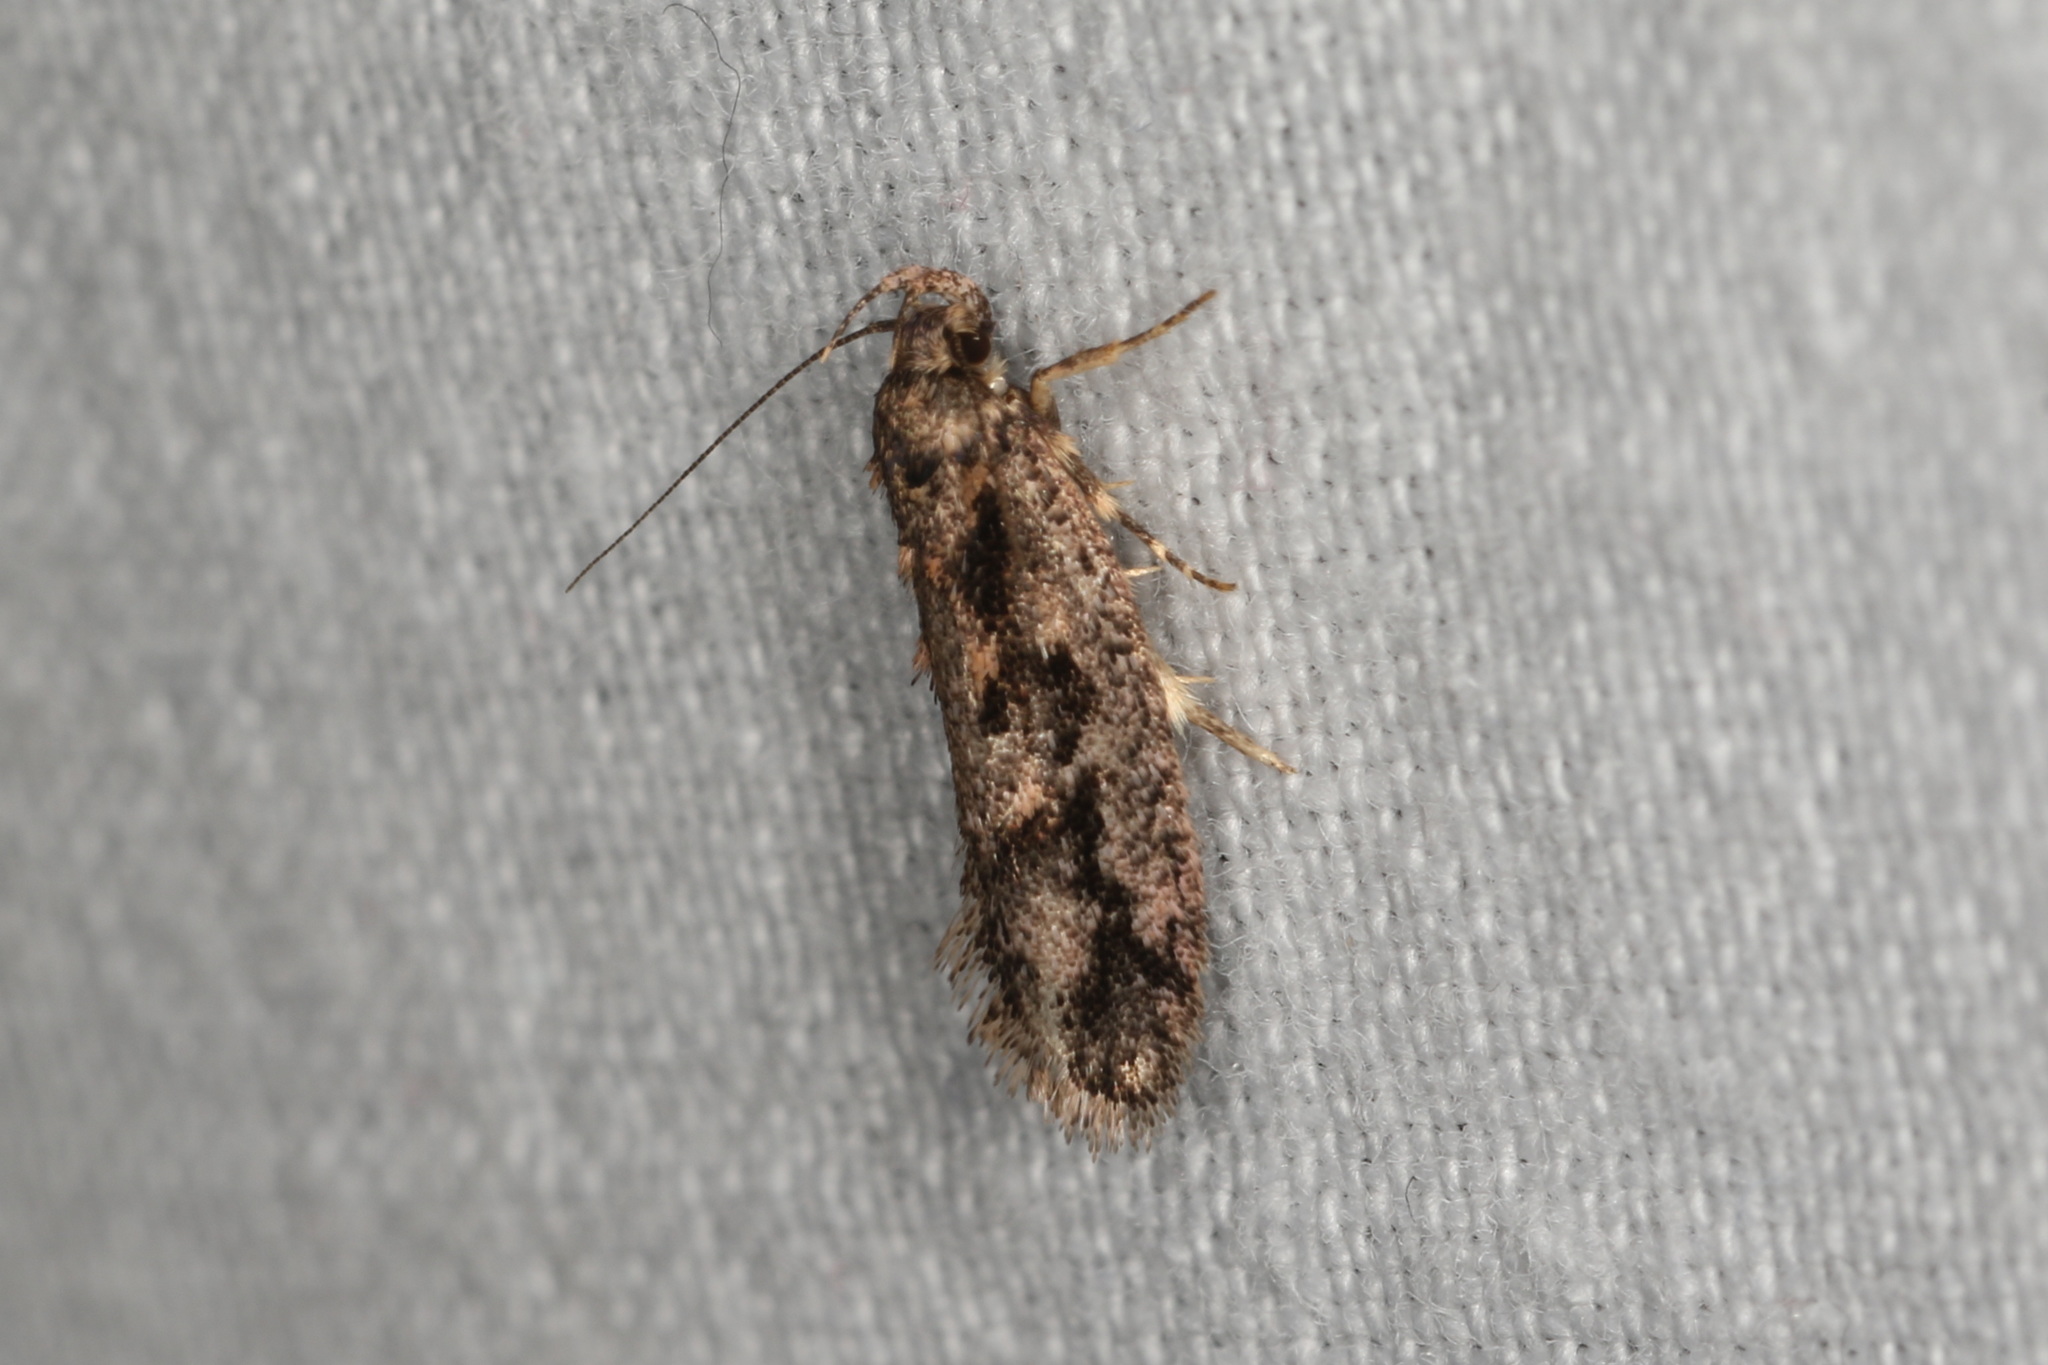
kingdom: Animalia
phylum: Arthropoda
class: Insecta
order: Lepidoptera
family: Oecophoridae
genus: Erythrobapta
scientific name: Erythrobapta haemalea
